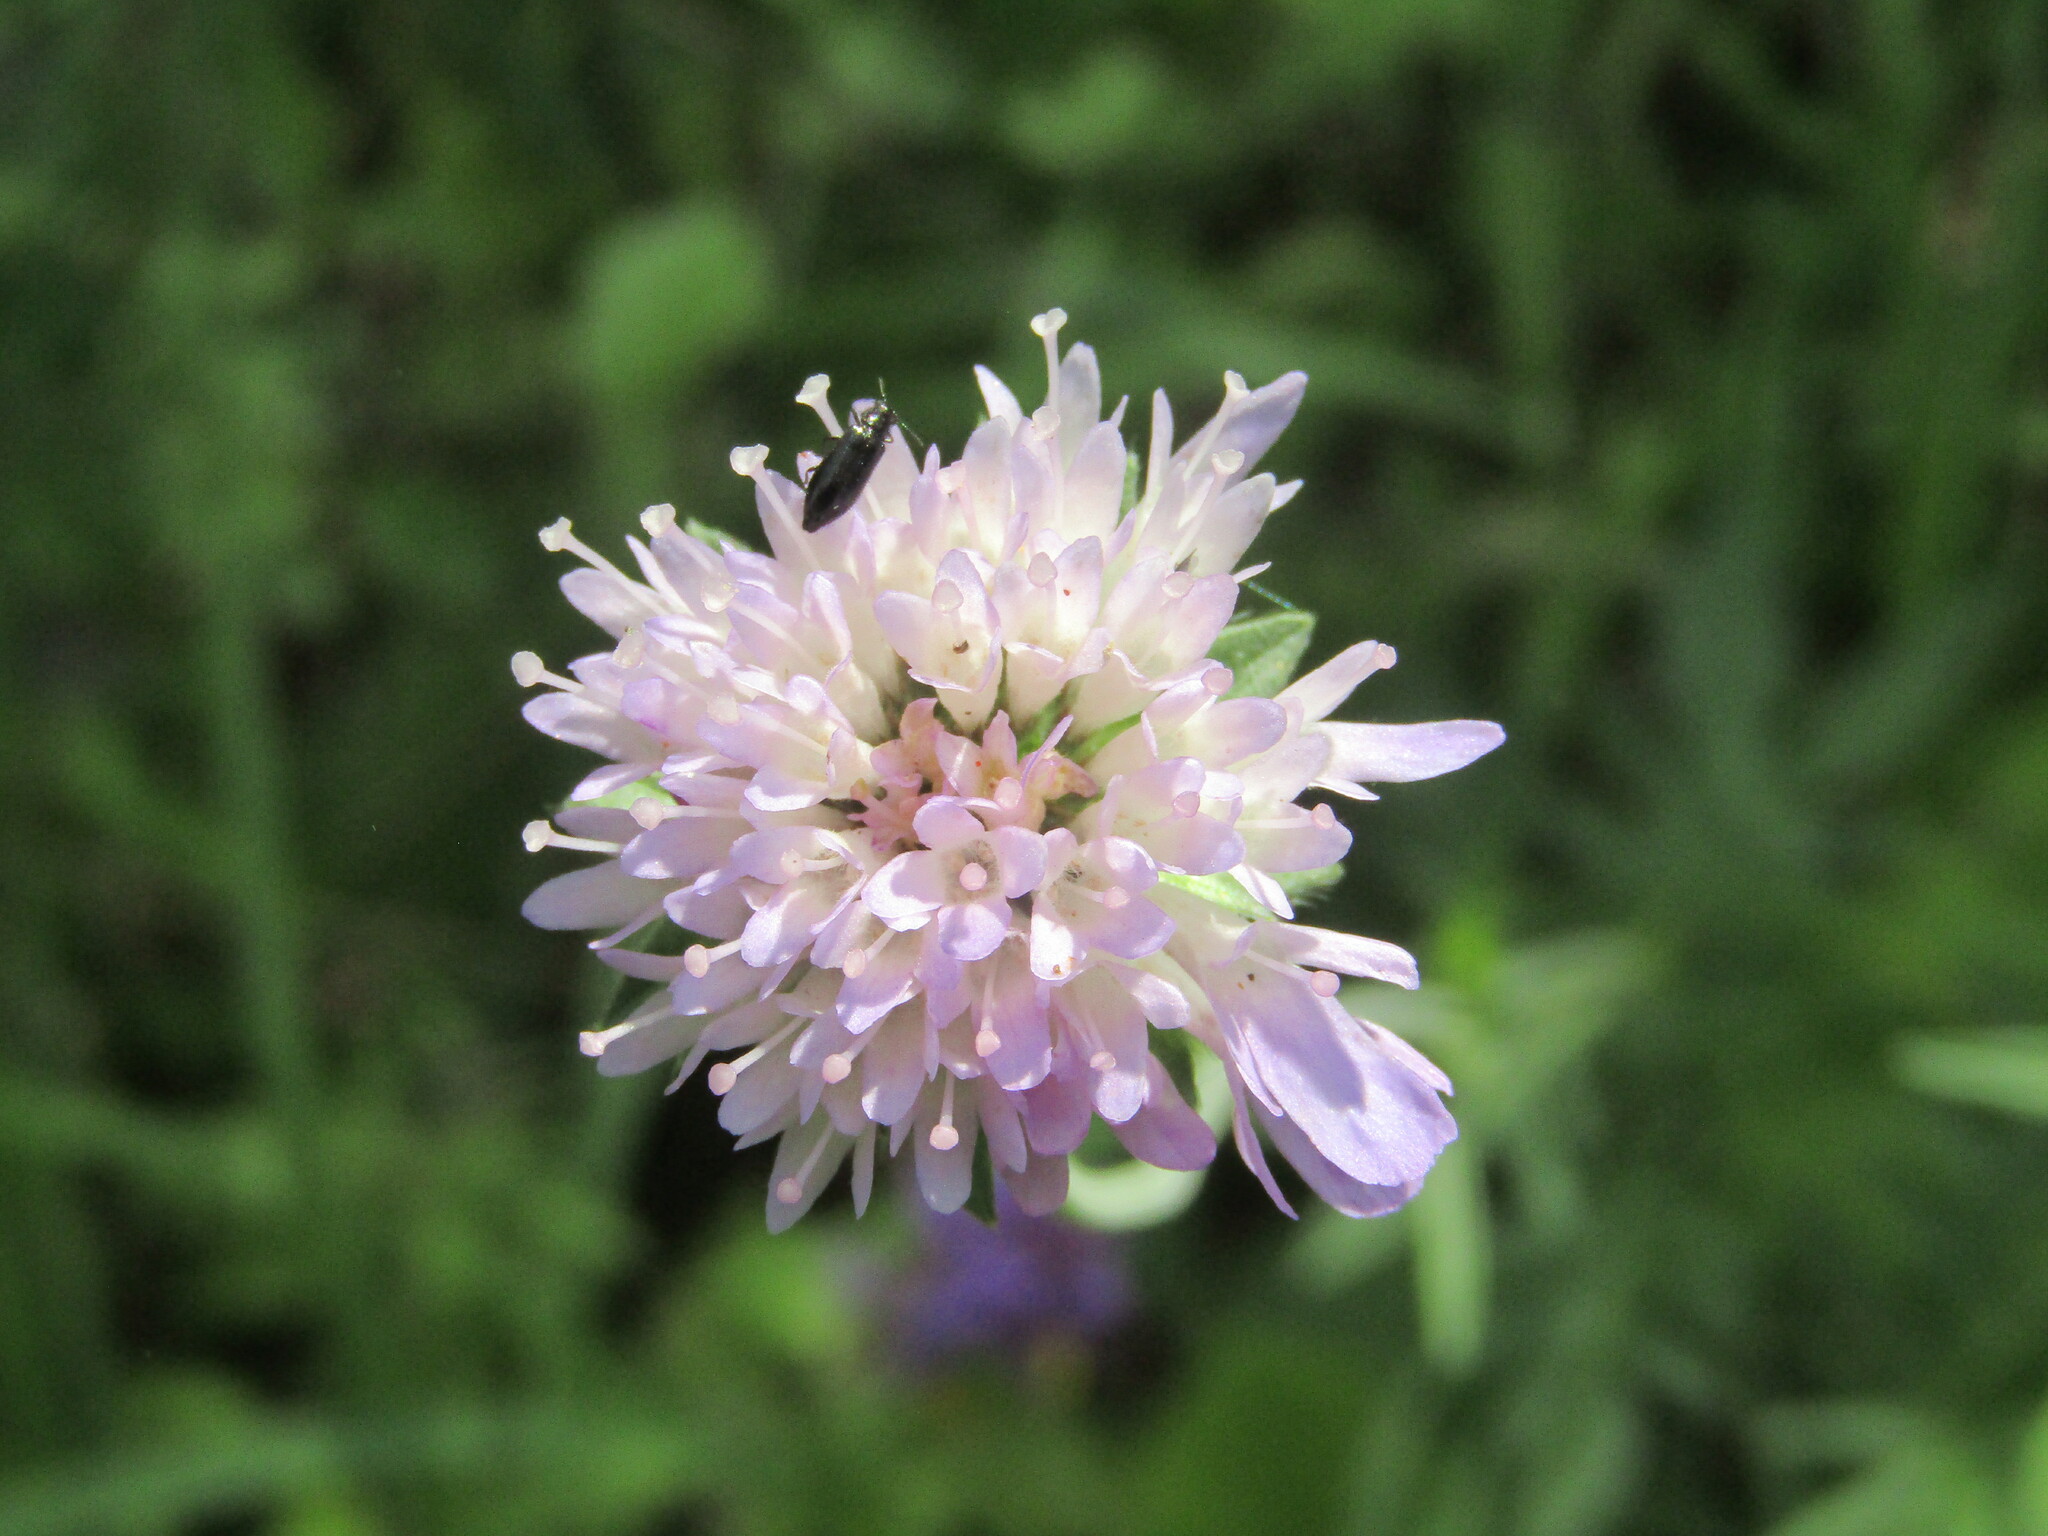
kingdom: Plantae
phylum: Tracheophyta
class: Magnoliopsida
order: Dipsacales
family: Caprifoliaceae
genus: Knautia
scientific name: Knautia arvensis
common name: Field scabiosa
